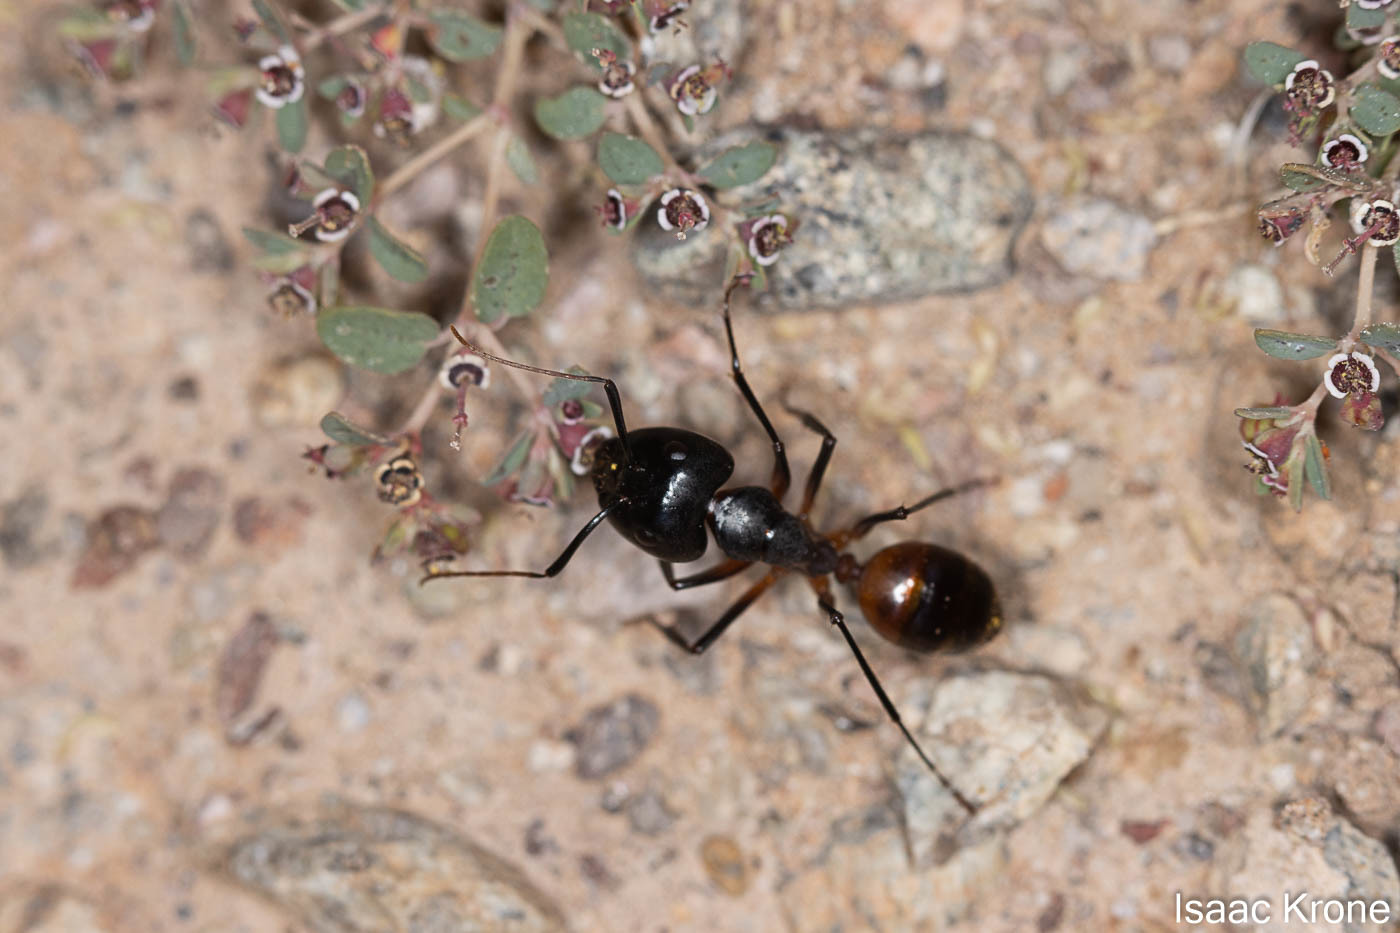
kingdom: Animalia
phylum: Arthropoda
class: Insecta
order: Hymenoptera
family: Formicidae
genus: Camponotus
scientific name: Camponotus ocreatus
